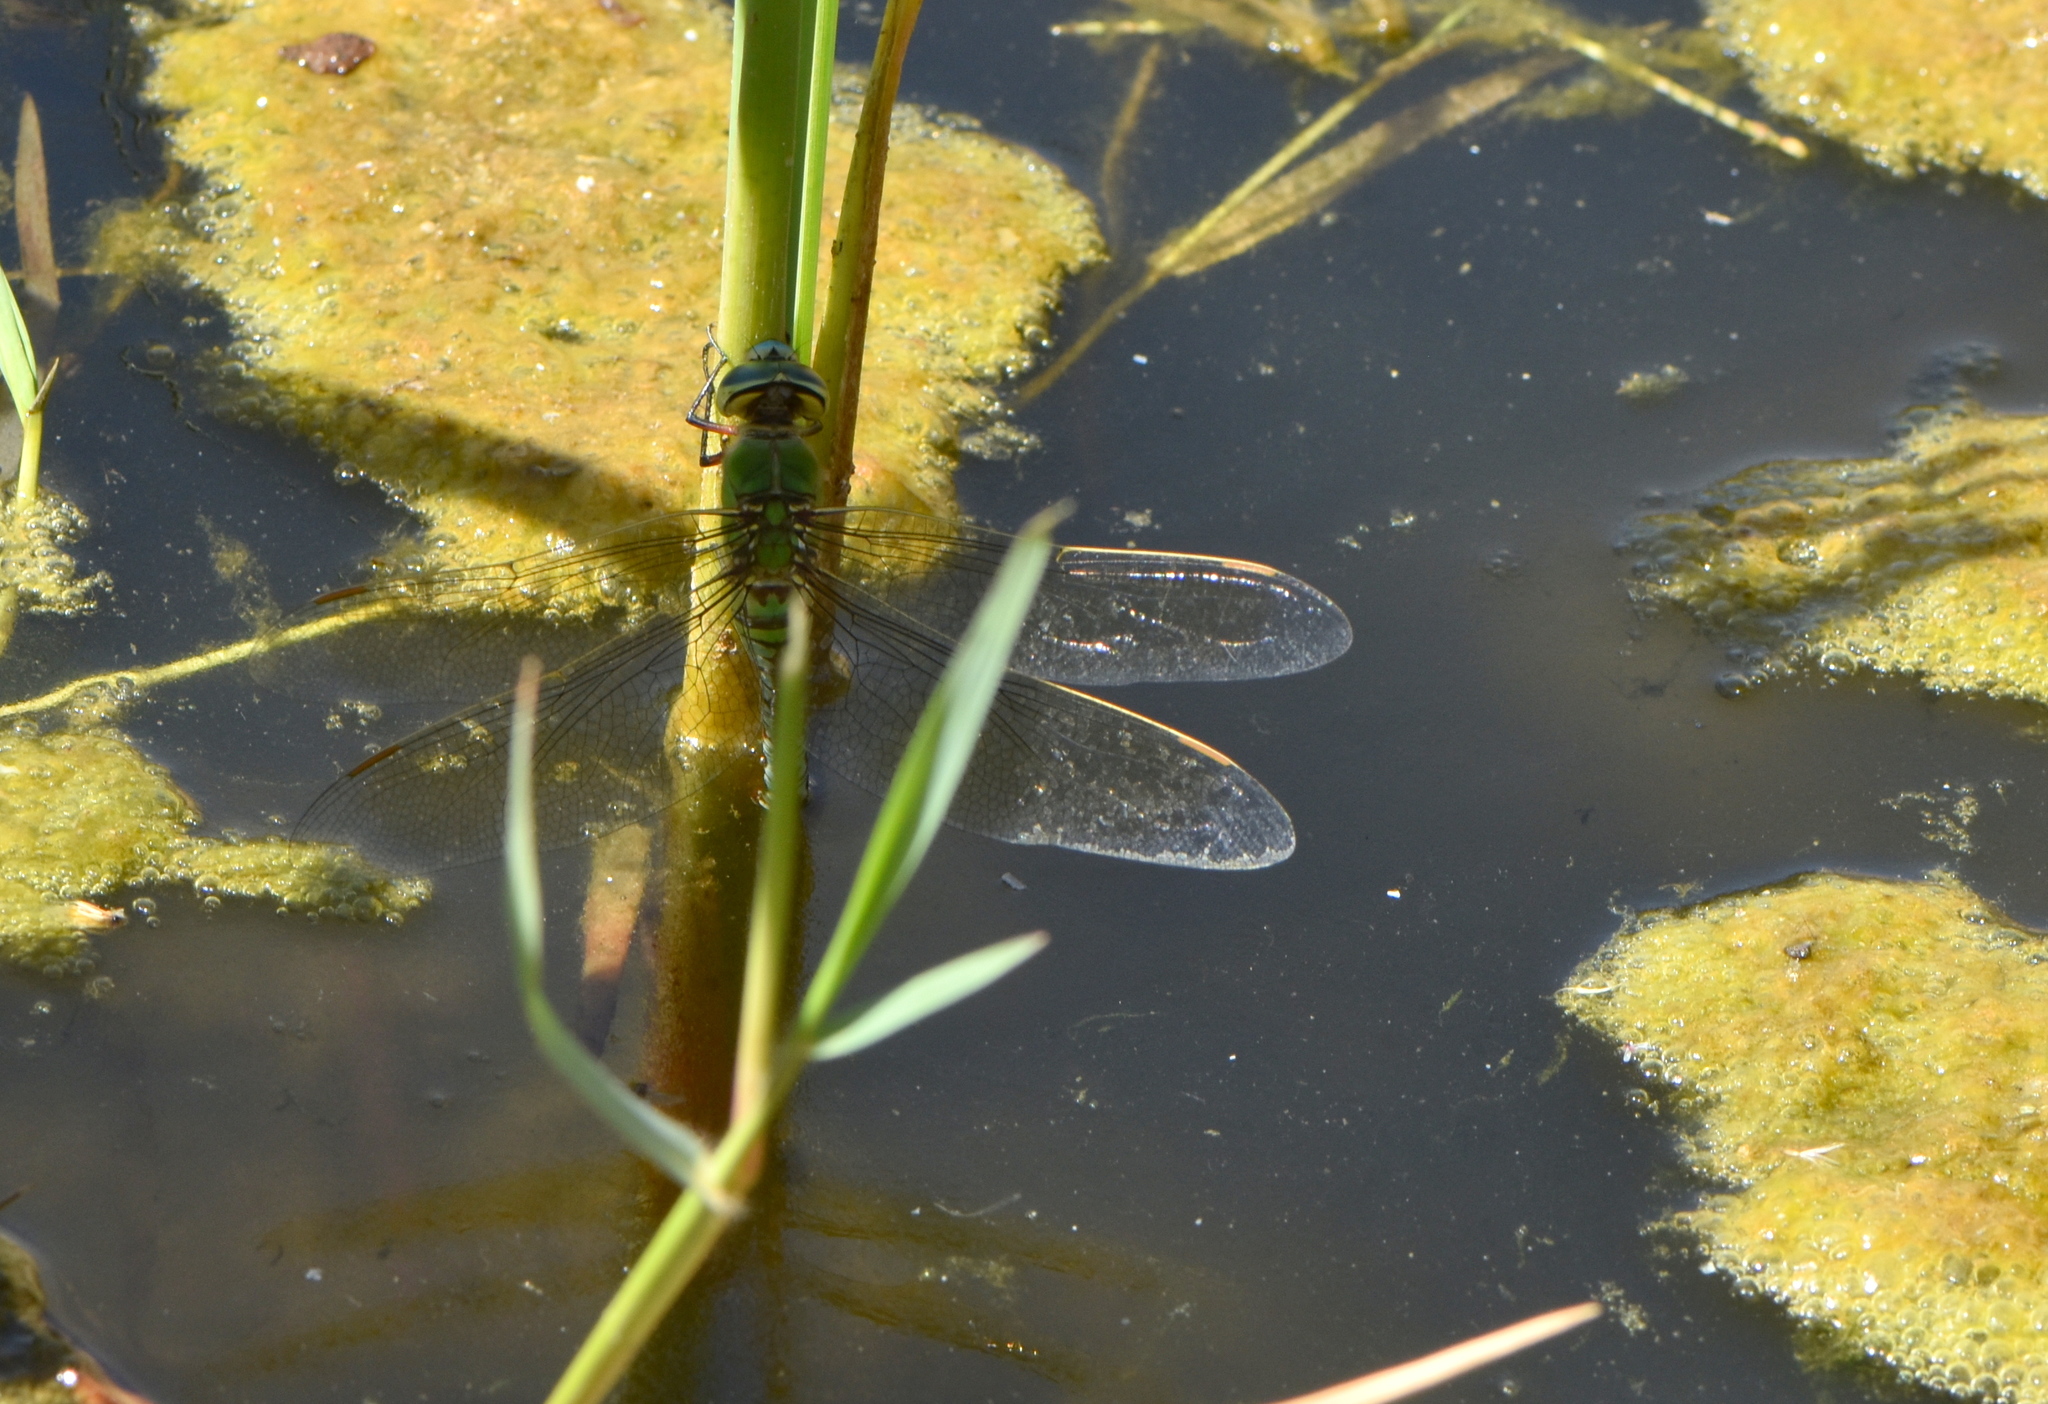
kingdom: Animalia
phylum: Arthropoda
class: Insecta
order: Odonata
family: Aeshnidae
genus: Anax
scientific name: Anax imperator
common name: Emperor dragonfly
